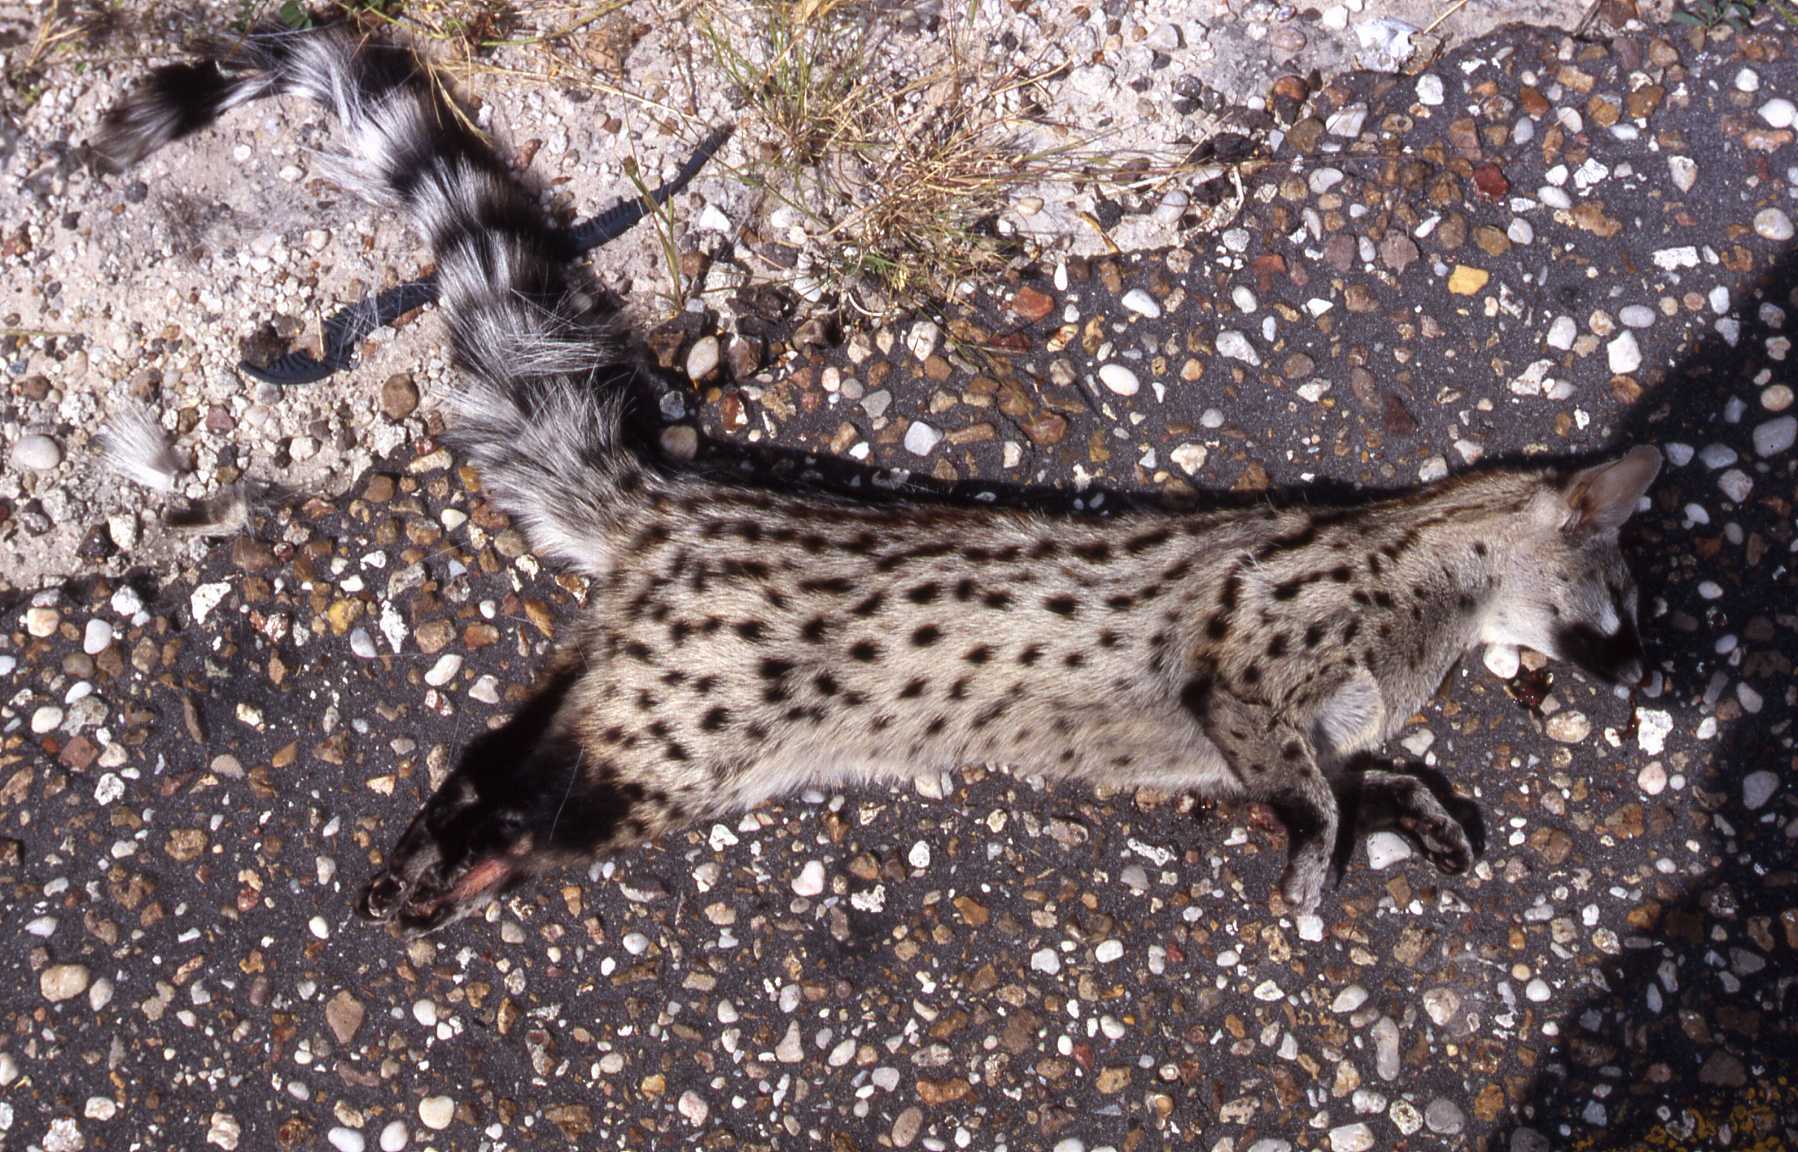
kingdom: Animalia
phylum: Chordata
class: Mammalia
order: Carnivora
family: Viverridae
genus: Genetta
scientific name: Genetta genetta
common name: Common genet
